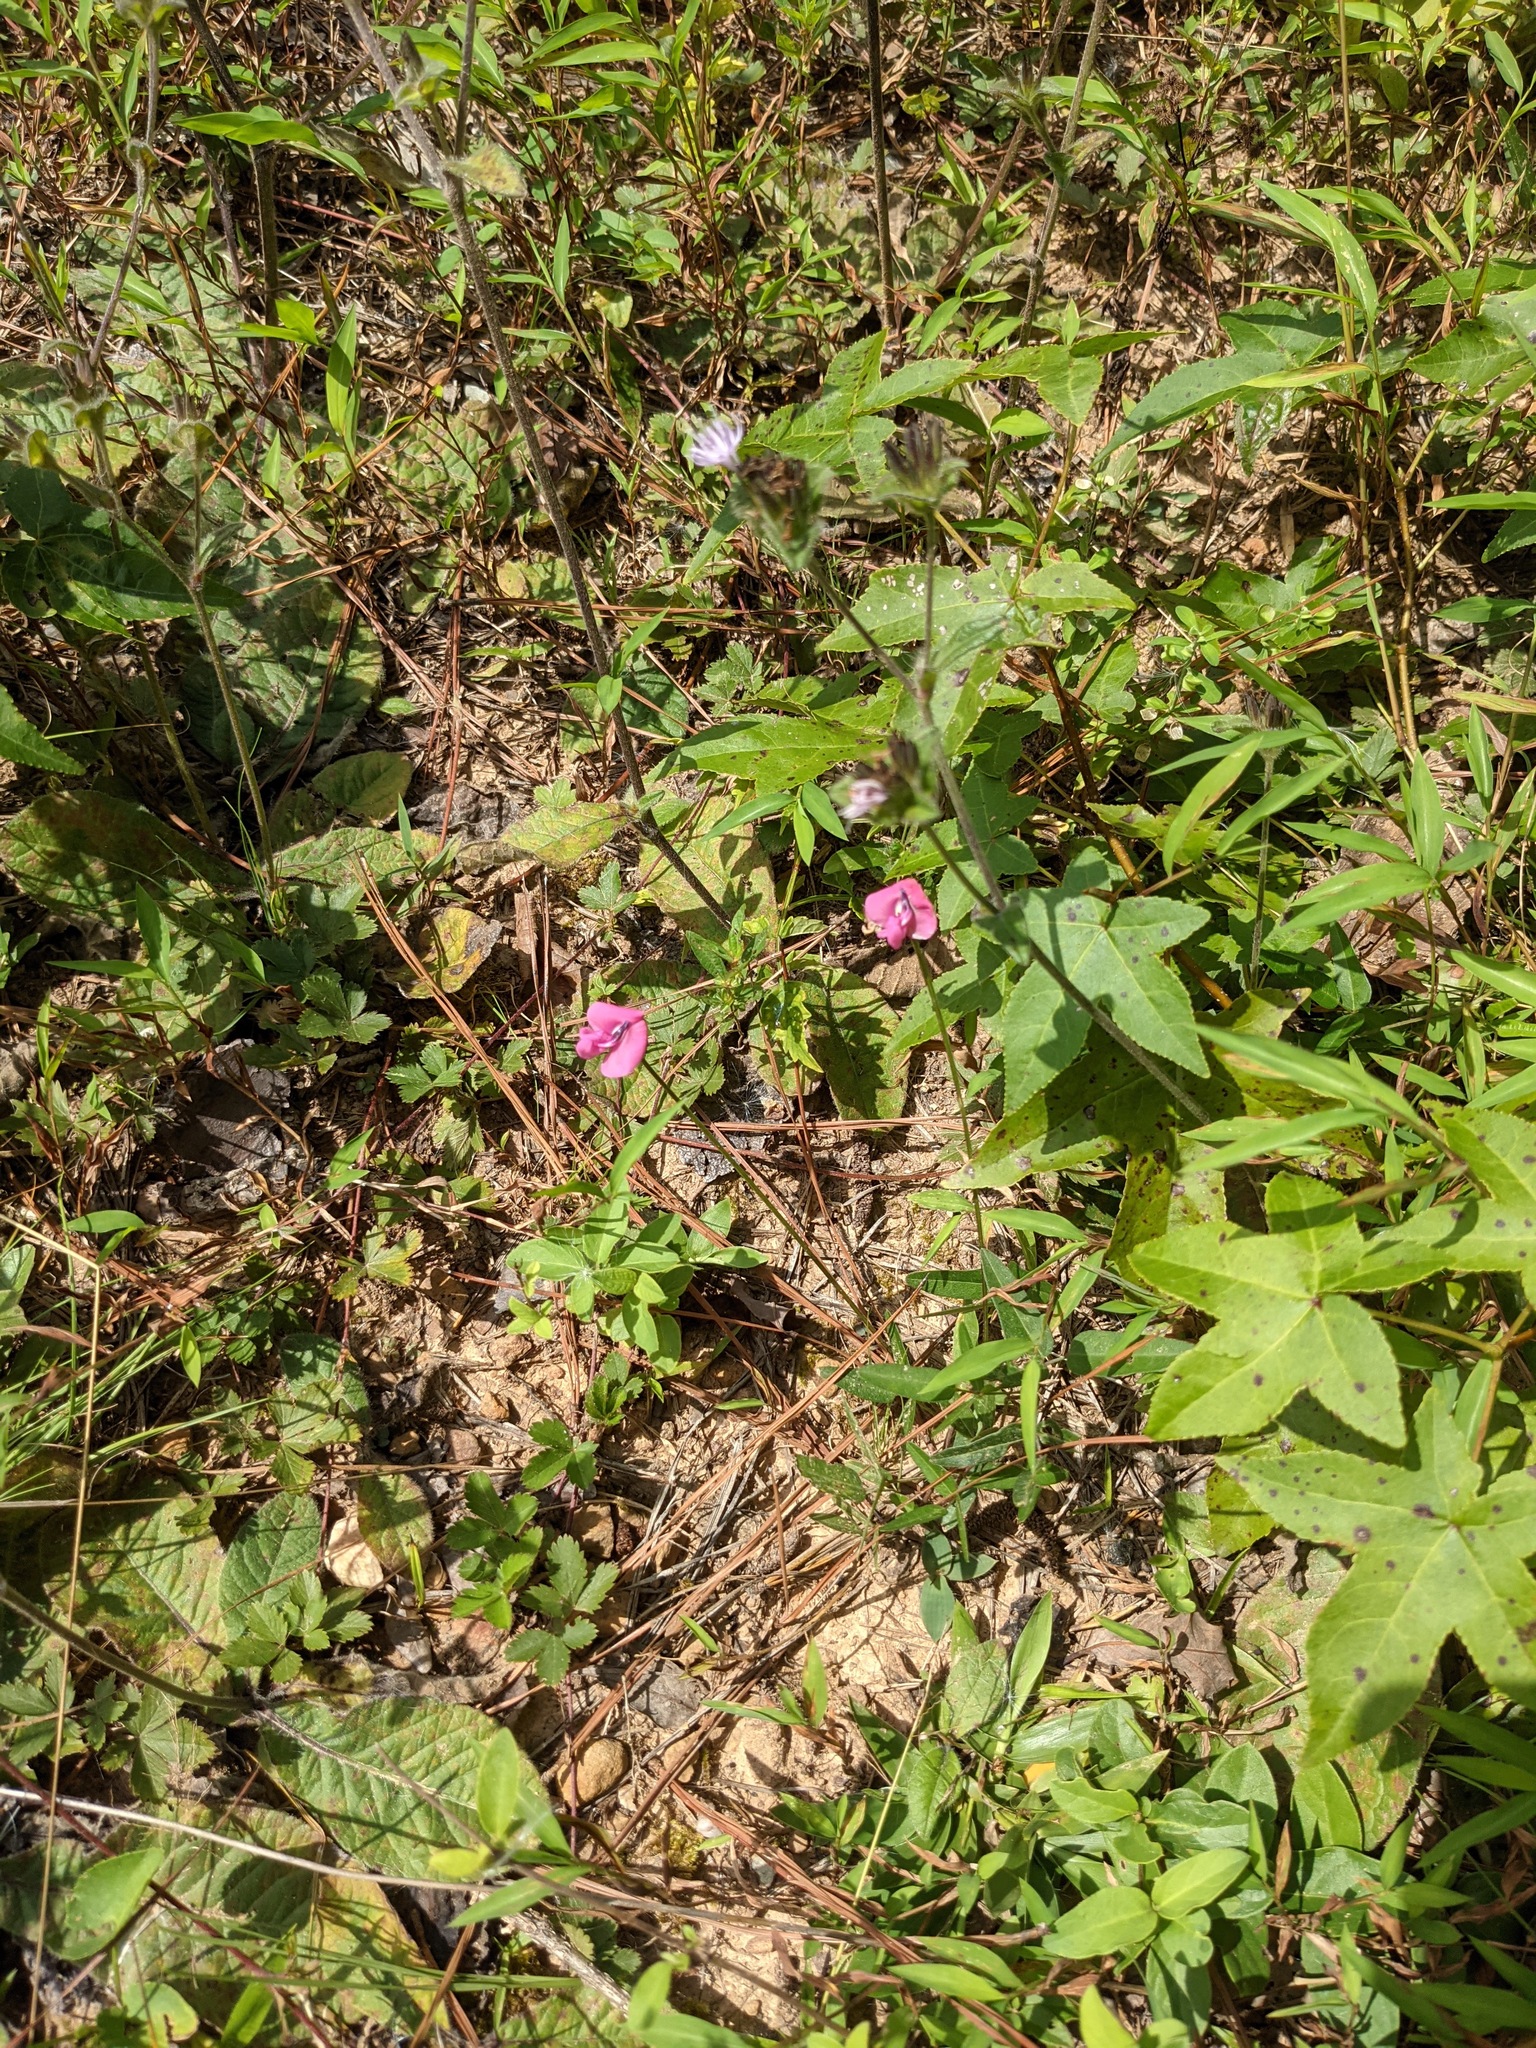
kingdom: Plantae
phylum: Tracheophyta
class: Magnoliopsida
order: Fabales
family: Fabaceae
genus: Strophostyles
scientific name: Strophostyles umbellata
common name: Perennial wild bean
